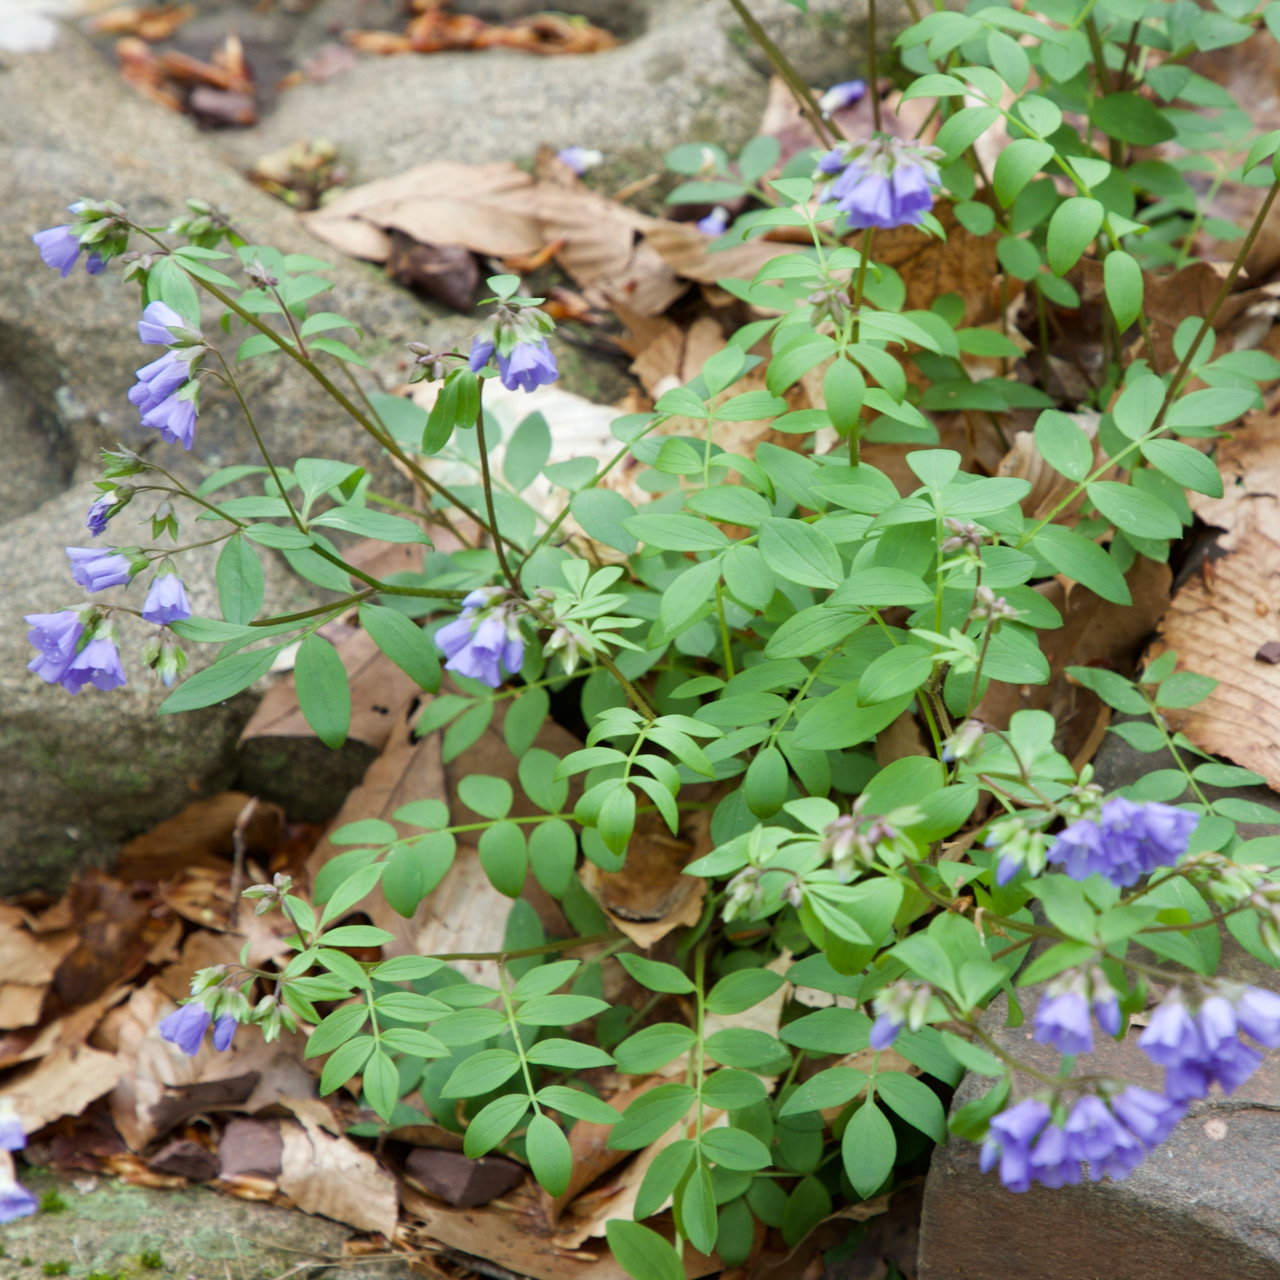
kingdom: Plantae
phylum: Tracheophyta
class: Magnoliopsida
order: Ericales
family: Polemoniaceae
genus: Polemonium
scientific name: Polemonium reptans
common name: Creeping jacob's-ladder
